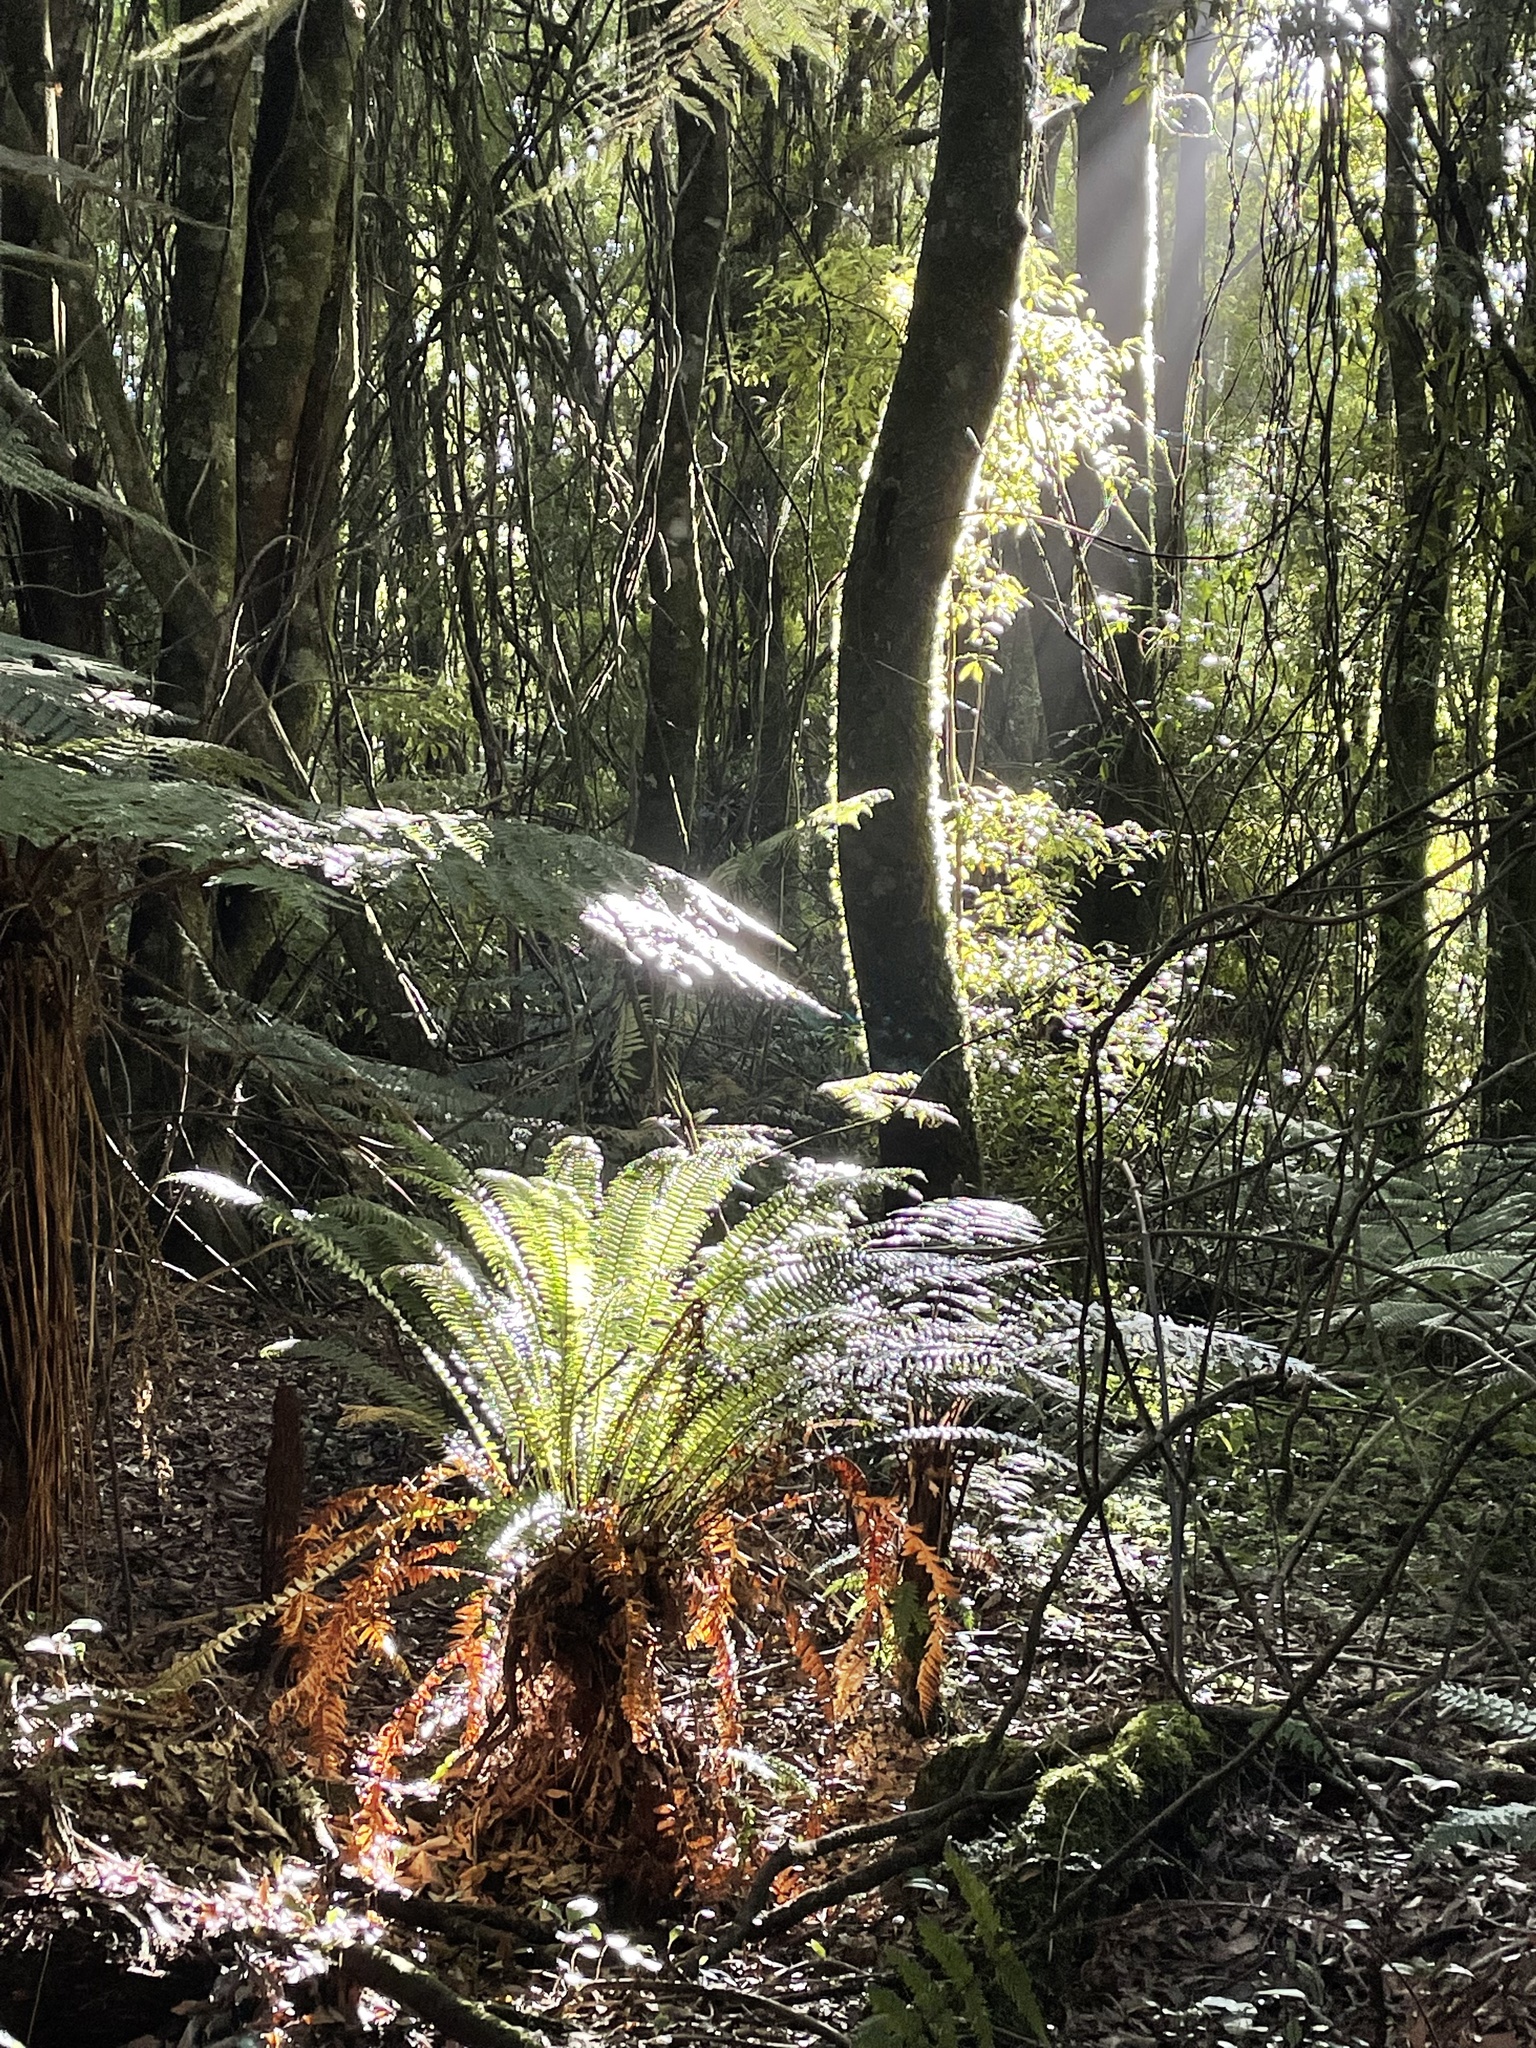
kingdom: Plantae
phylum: Tracheophyta
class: Polypodiopsida
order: Polypodiales
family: Blechnaceae
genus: Lomaria
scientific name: Lomaria discolor
